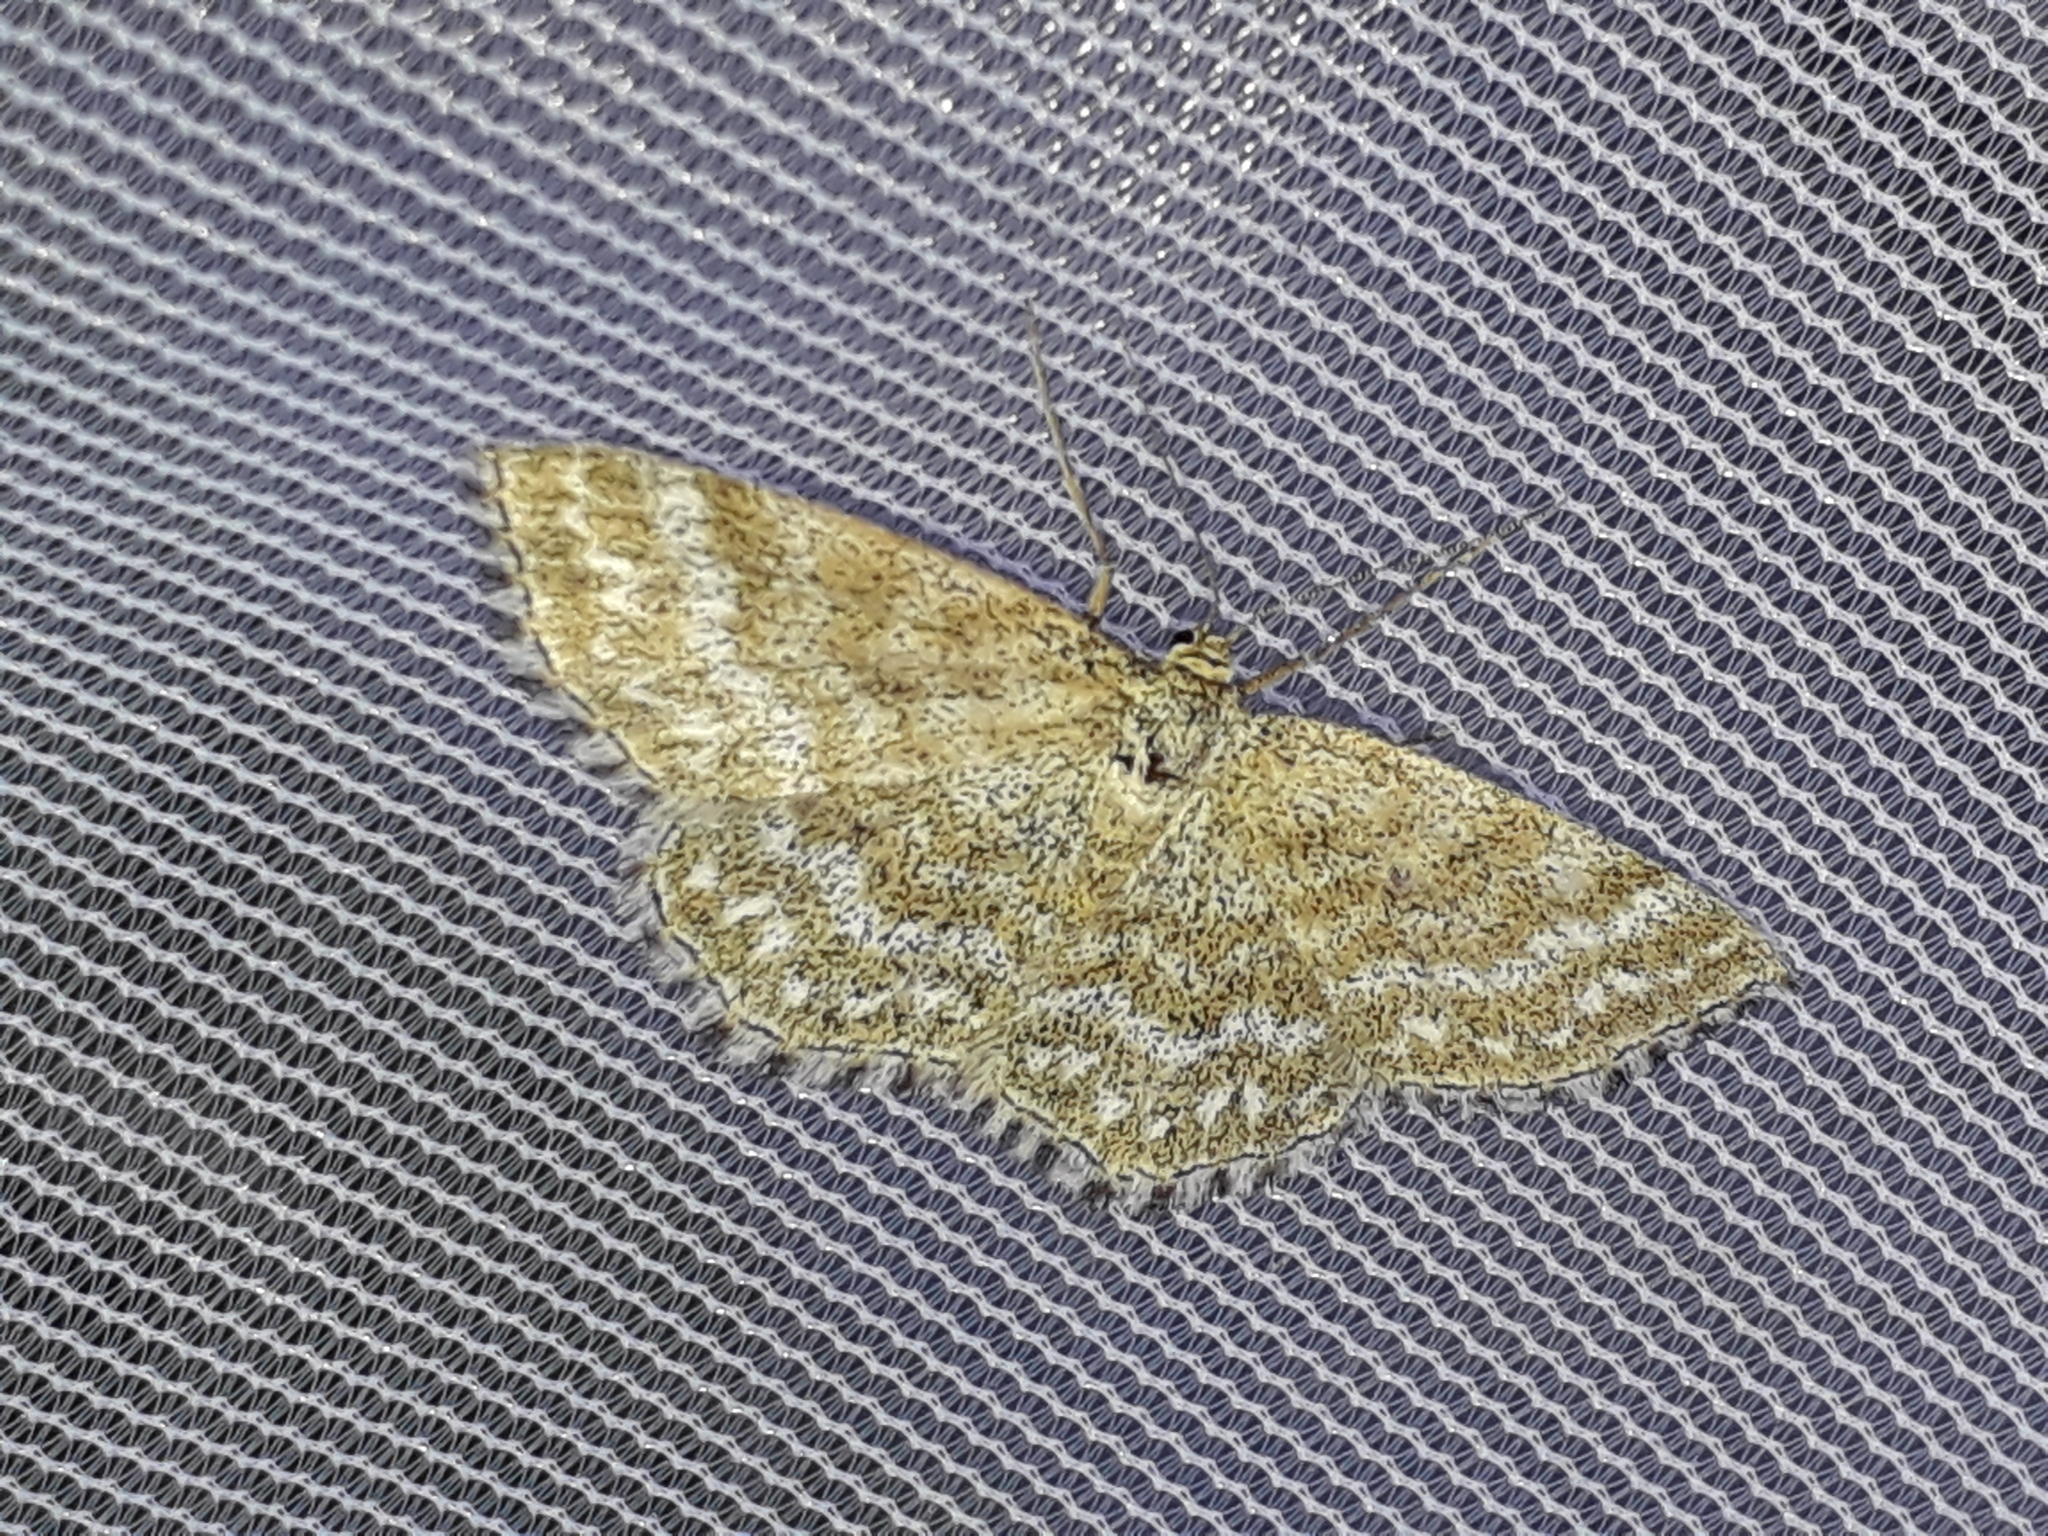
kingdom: Animalia
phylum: Arthropoda
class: Insecta
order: Lepidoptera
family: Geometridae
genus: Scopula
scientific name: Scopula immorata
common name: Lewes wave
